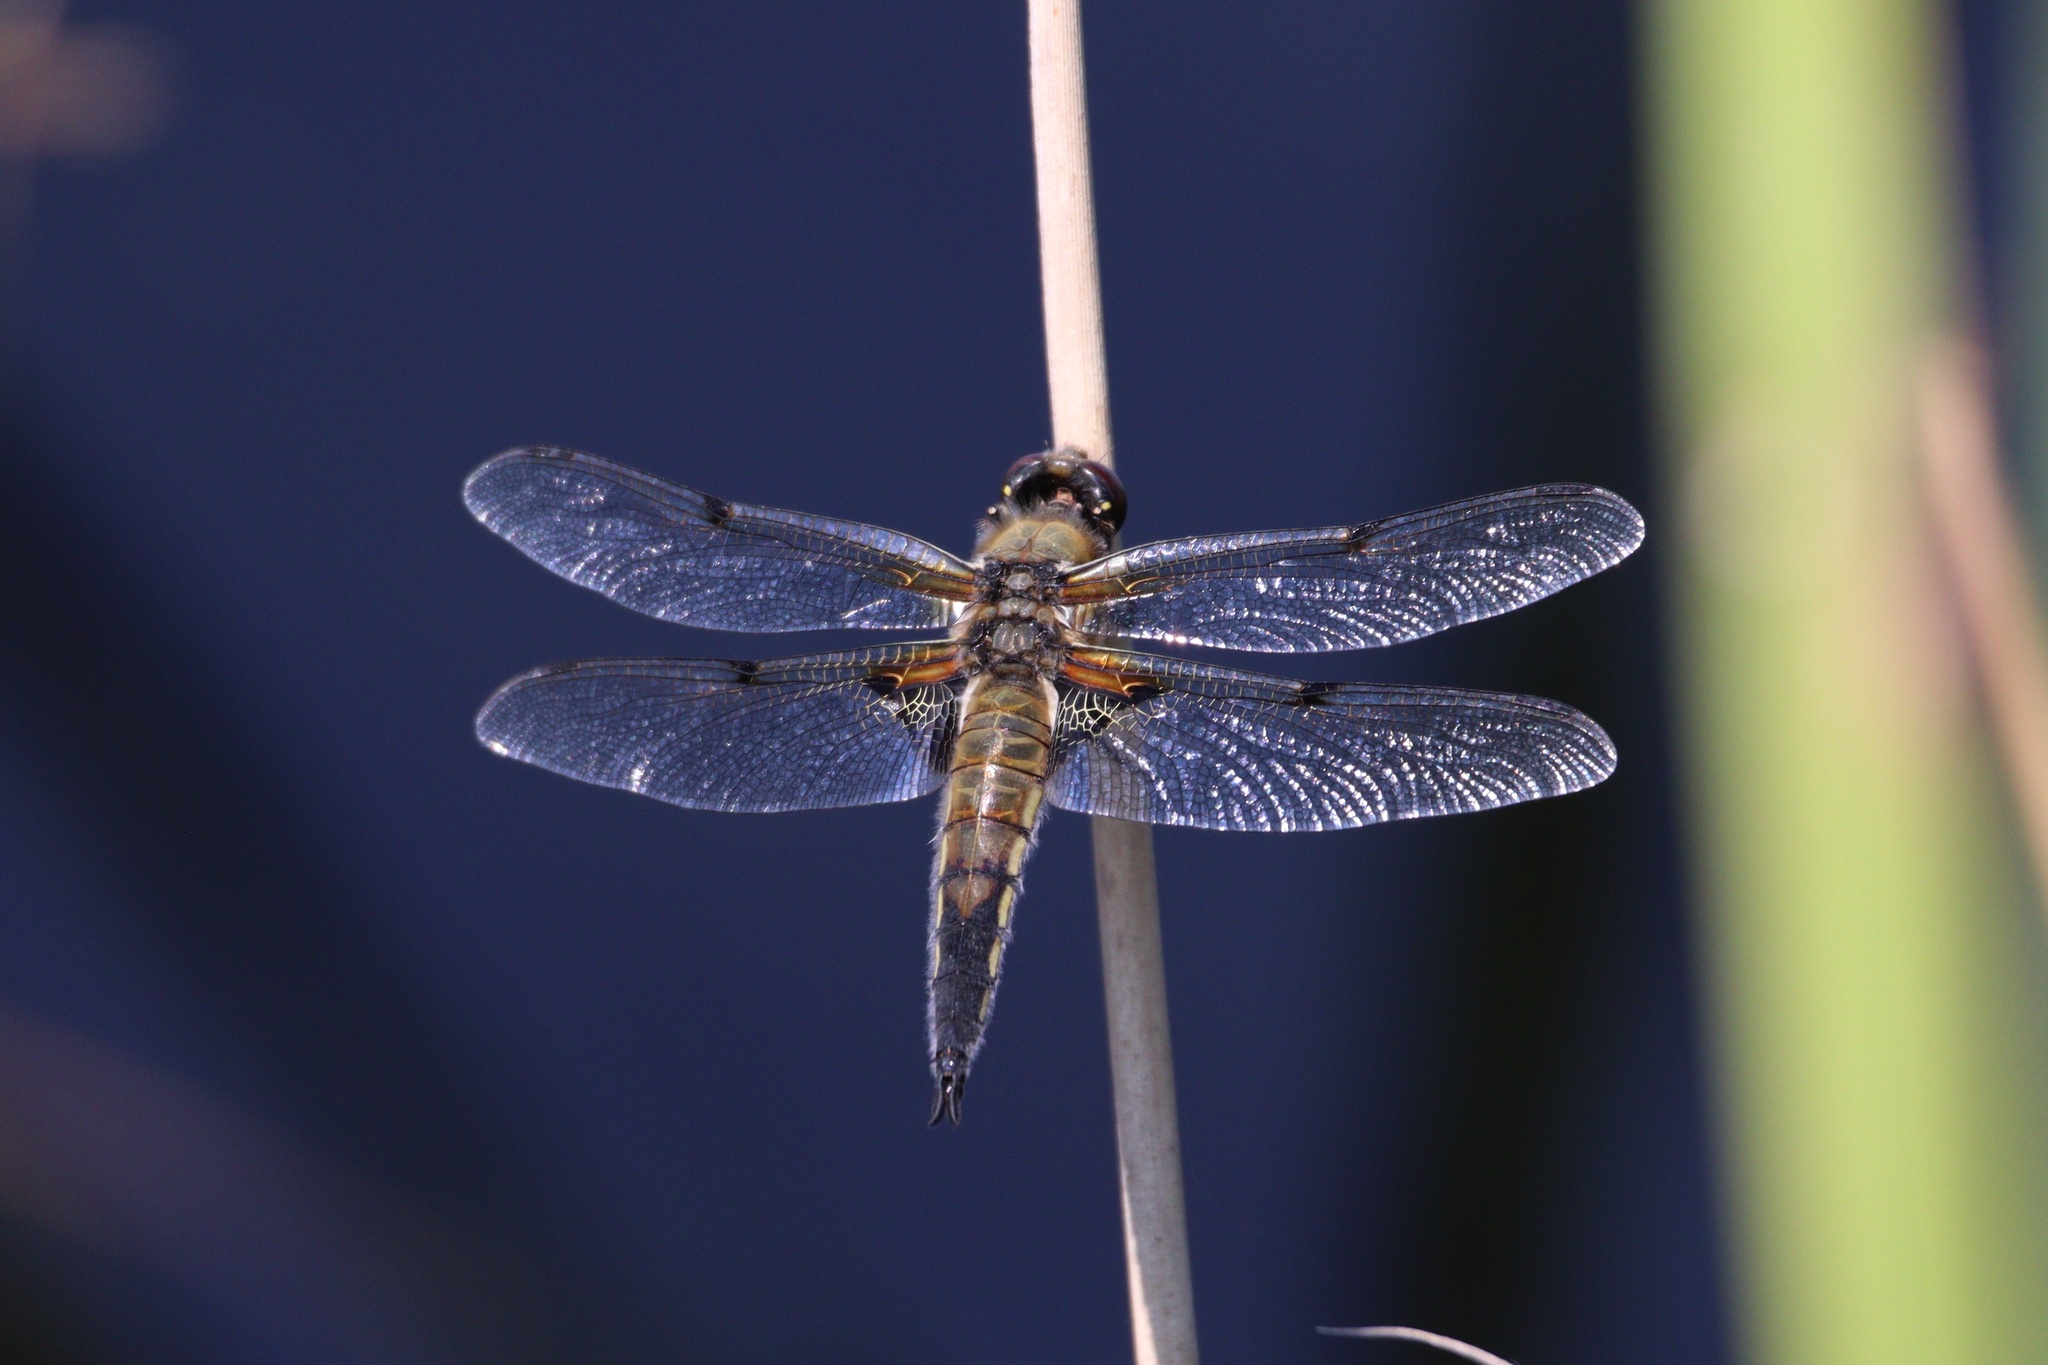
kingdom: Animalia
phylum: Arthropoda
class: Insecta
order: Odonata
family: Libellulidae
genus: Libellula
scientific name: Libellula quadrimaculata
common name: Four-spotted chaser
